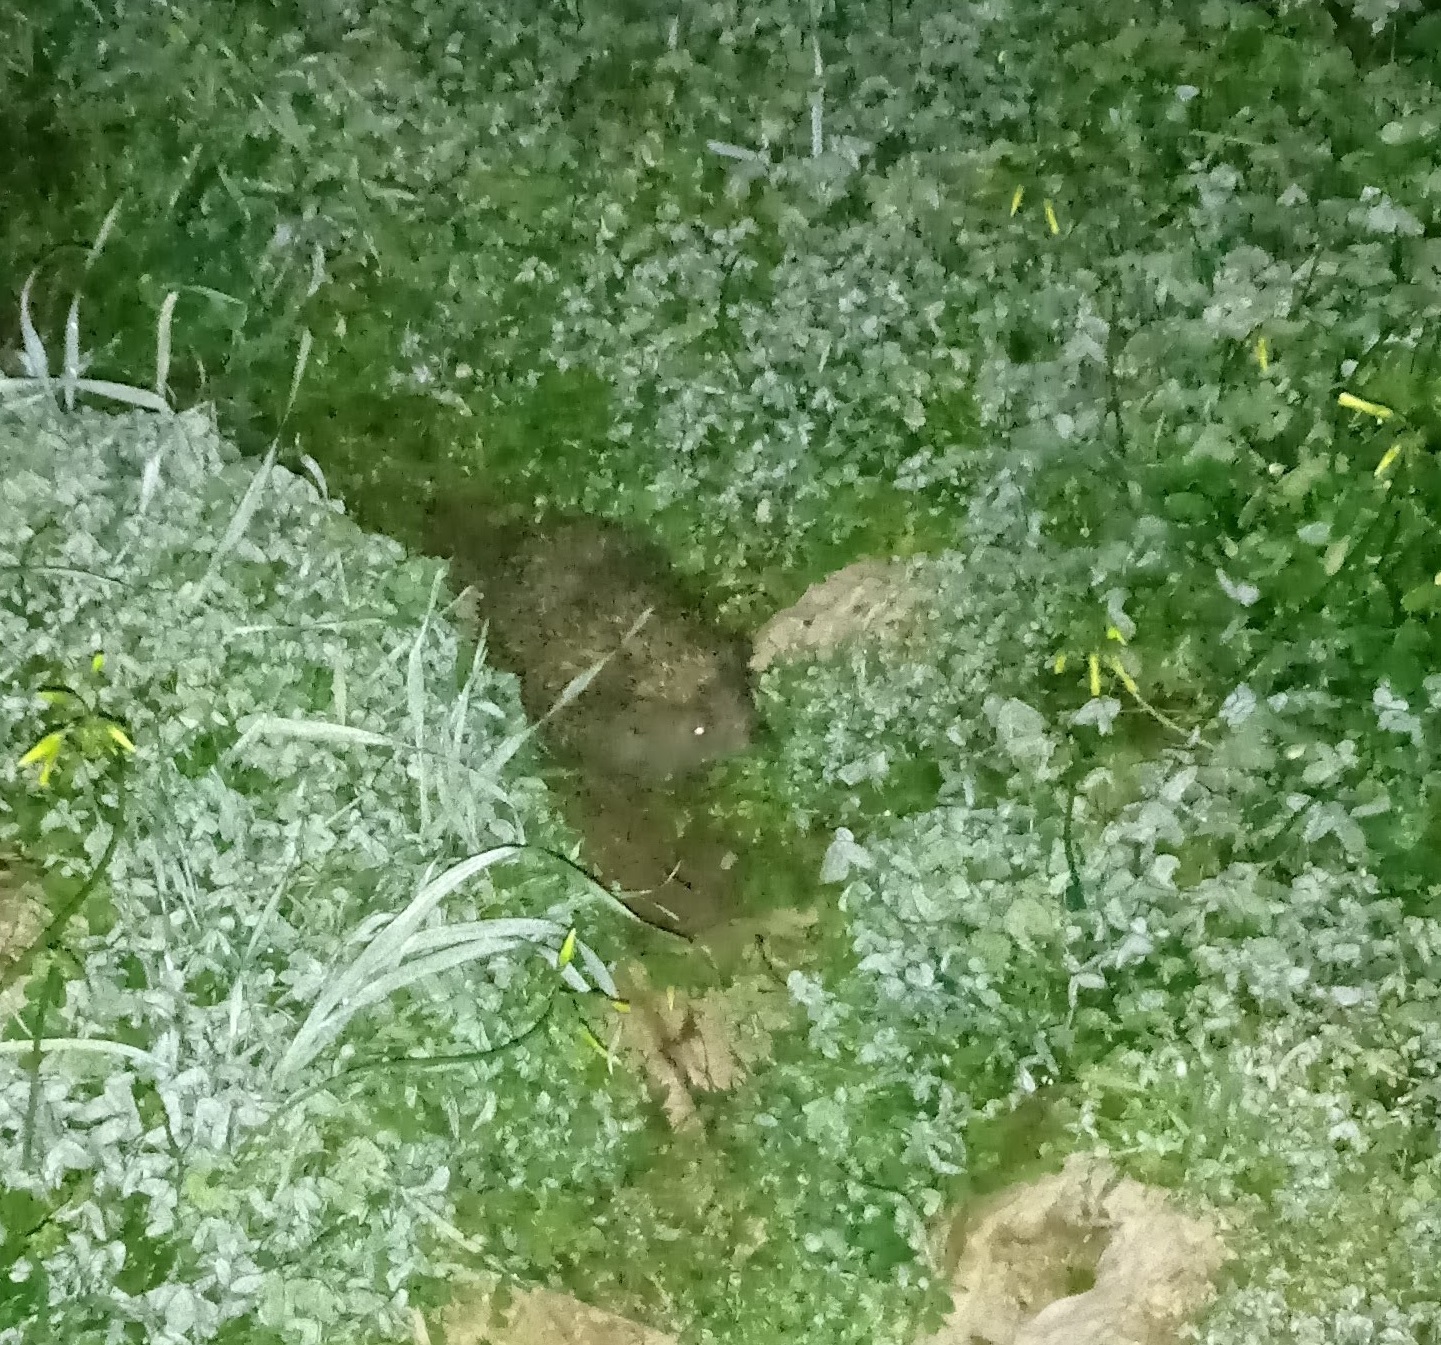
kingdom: Animalia
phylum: Chordata
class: Mammalia
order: Erinaceomorpha
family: Erinaceidae
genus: Erinaceus
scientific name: Erinaceus concolor
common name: Southern white-breasted hedgehog
